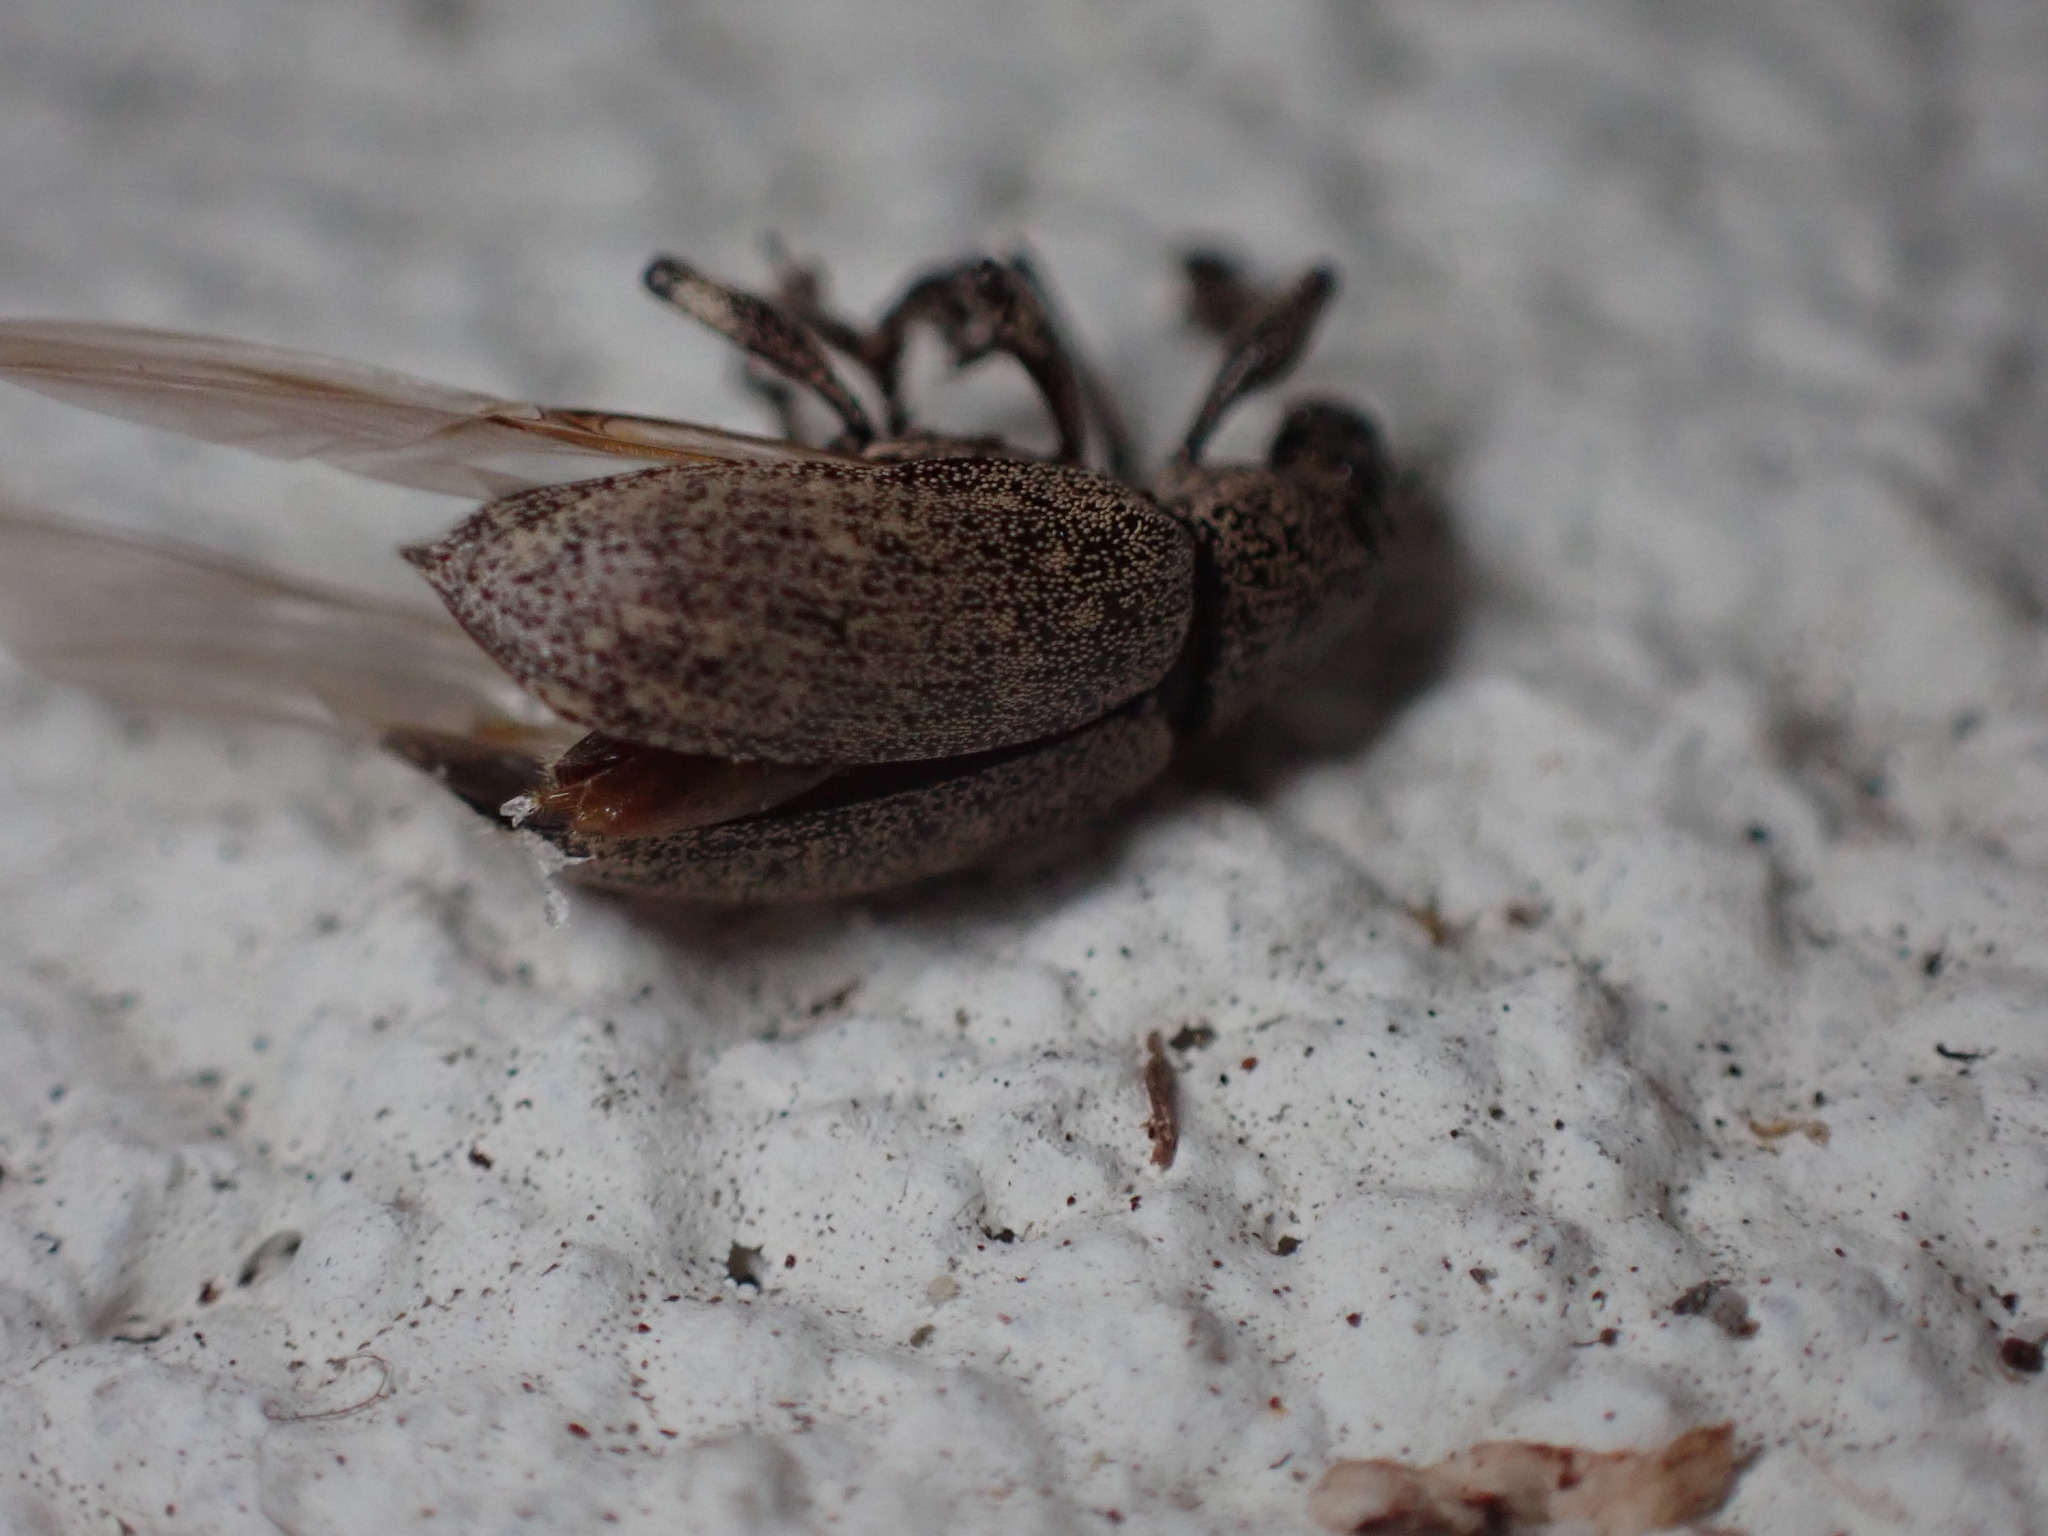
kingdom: Animalia
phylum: Arthropoda
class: Insecta
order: Coleoptera
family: Curculionidae
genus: Lachnopus
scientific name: Lachnopus vanessablockae
